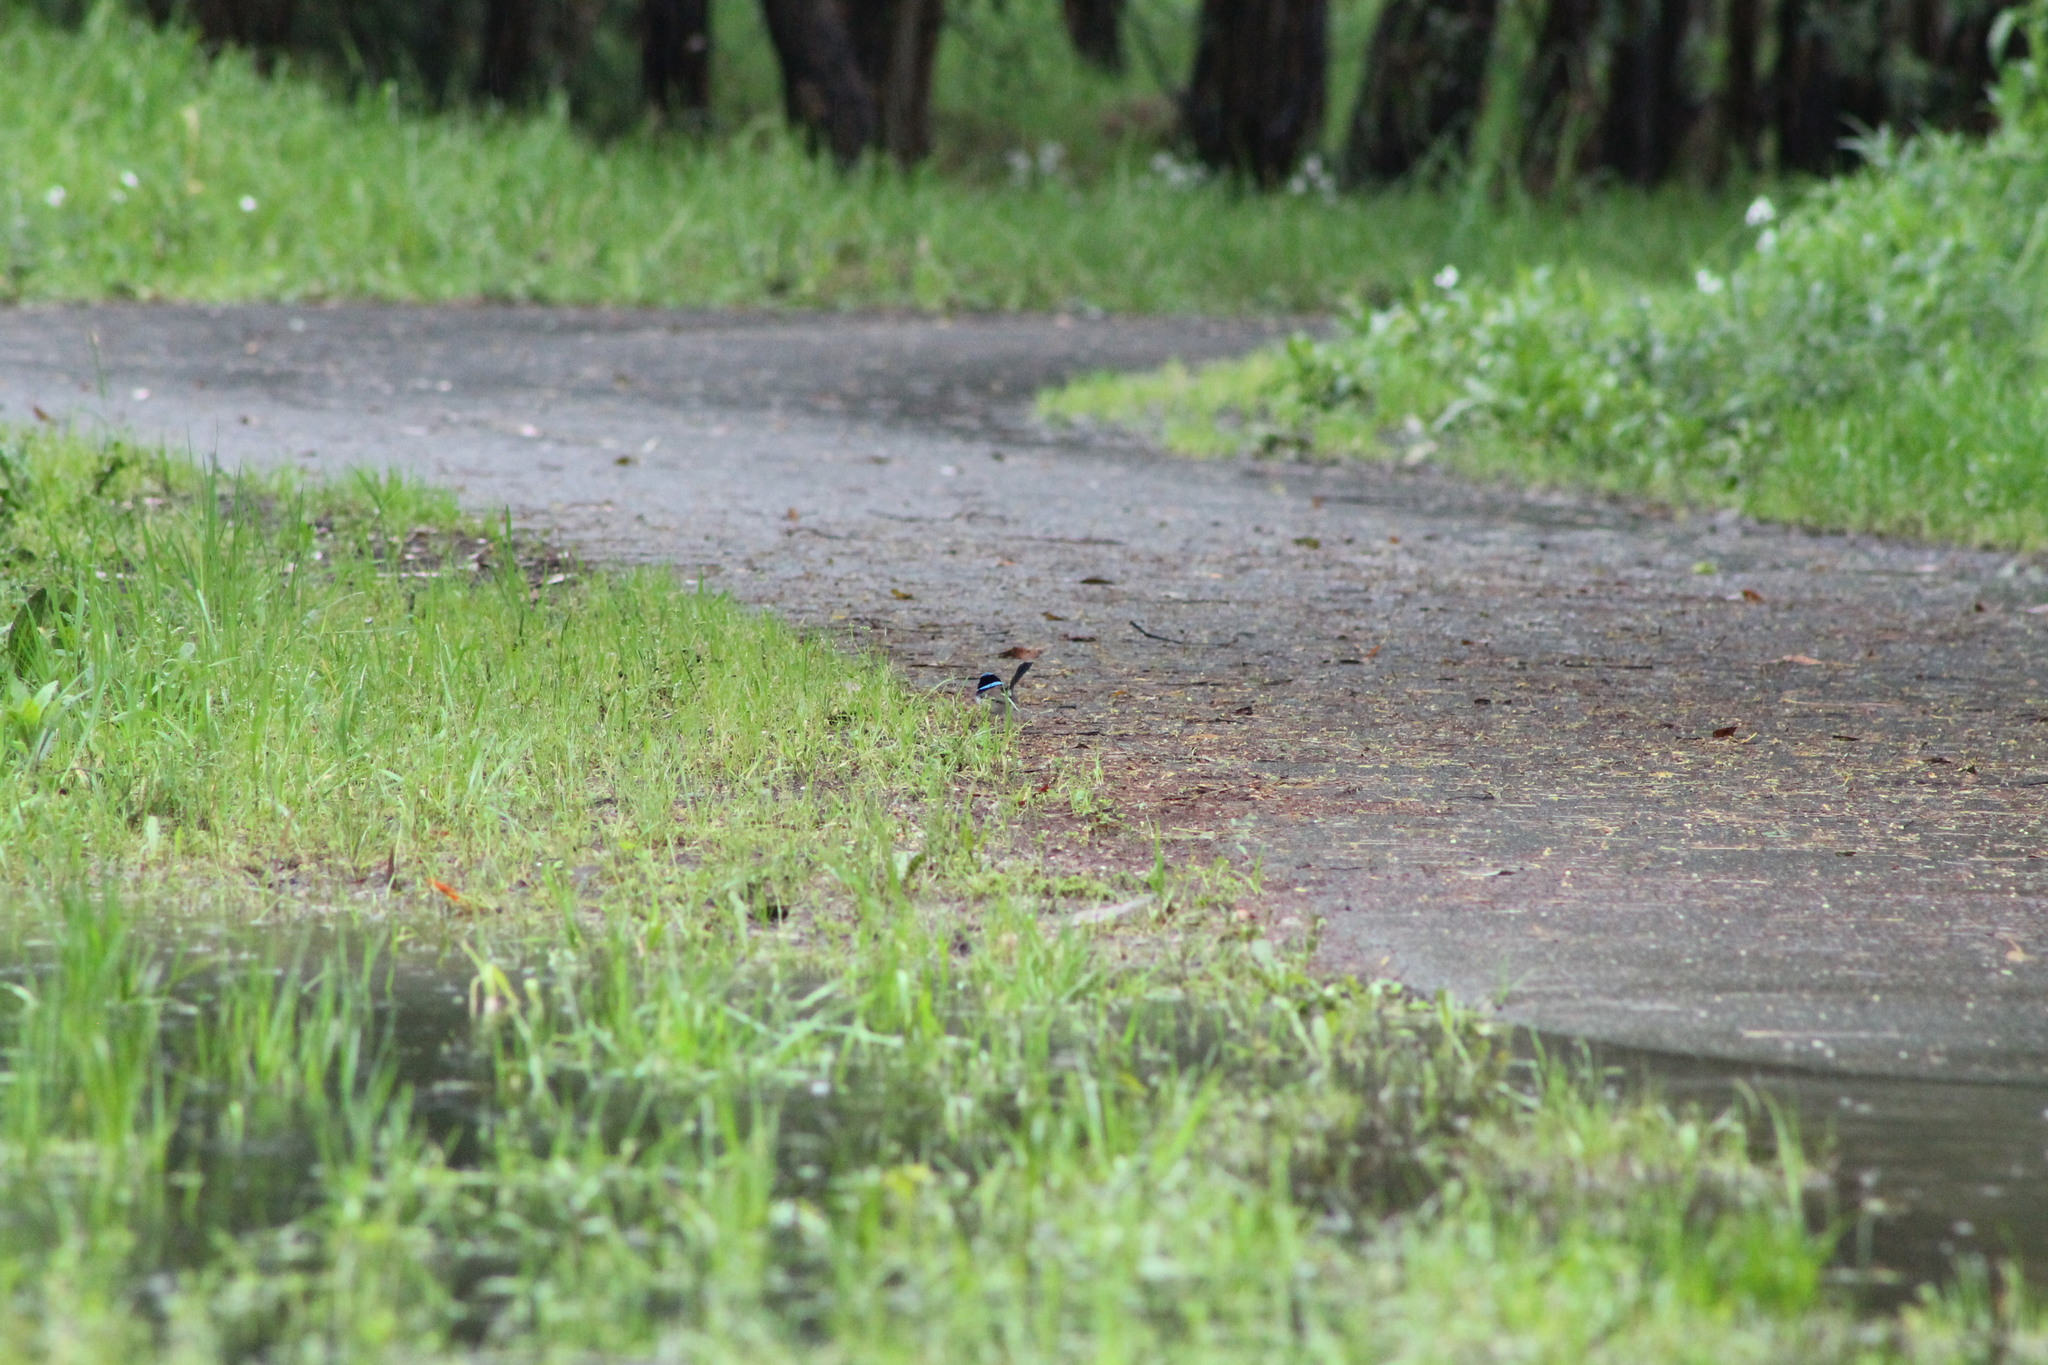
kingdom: Animalia
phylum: Chordata
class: Aves
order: Passeriformes
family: Maluridae
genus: Malurus
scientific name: Malurus cyaneus
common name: Superb fairywren
